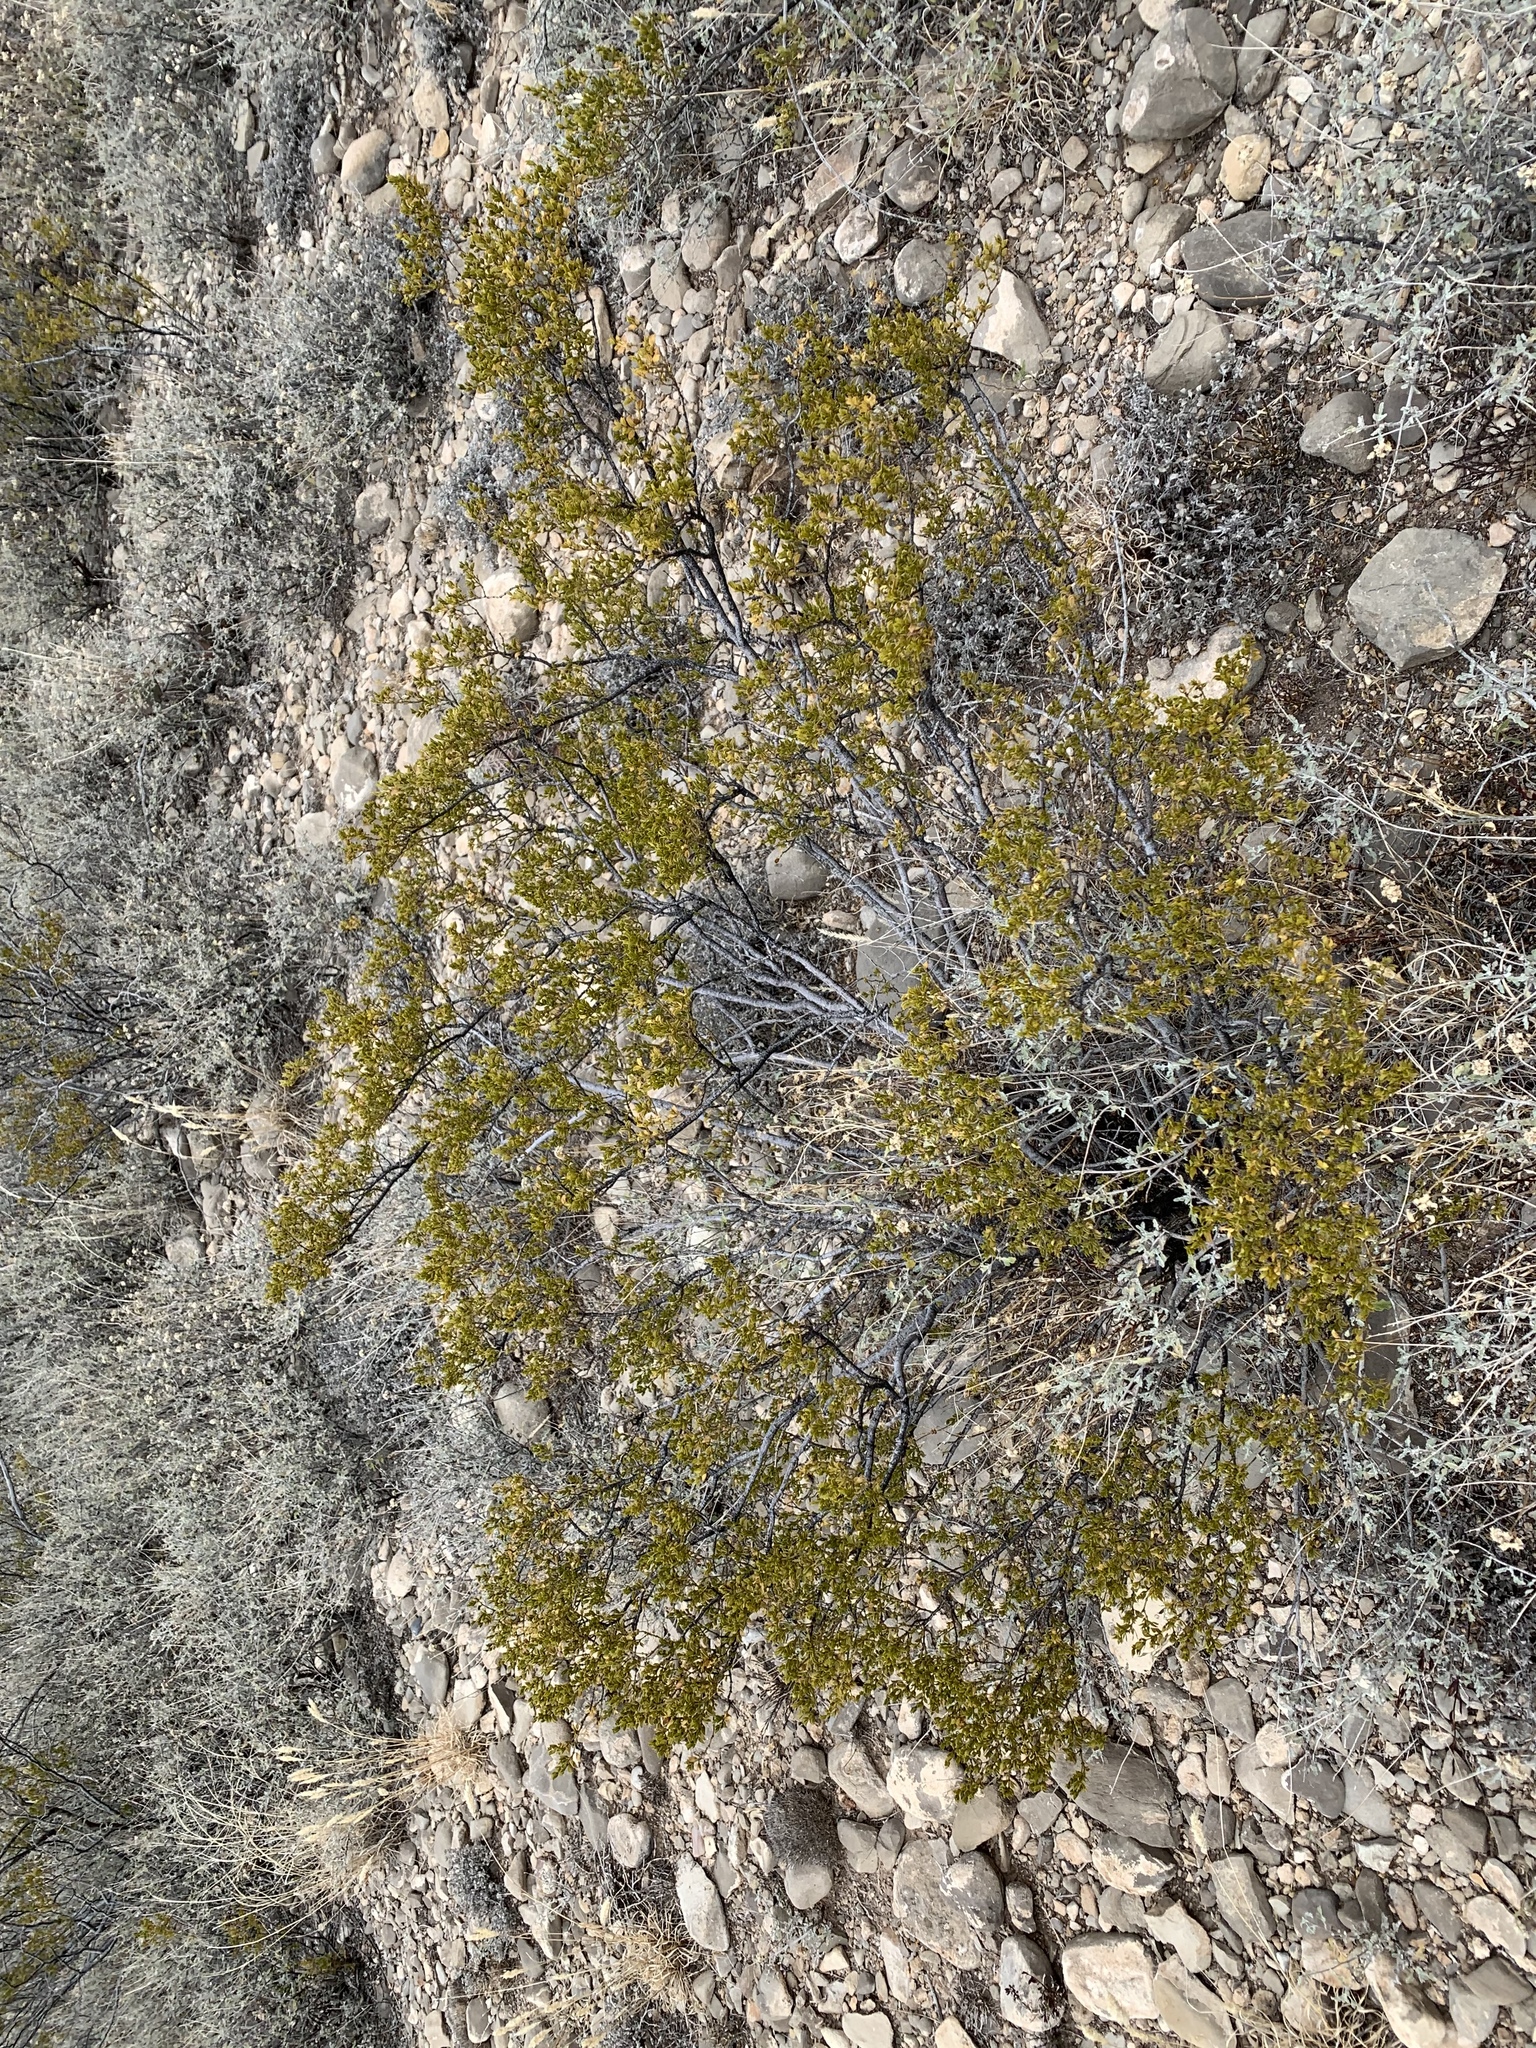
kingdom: Plantae
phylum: Tracheophyta
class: Magnoliopsida
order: Zygophyllales
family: Zygophyllaceae
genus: Larrea
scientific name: Larrea tridentata
